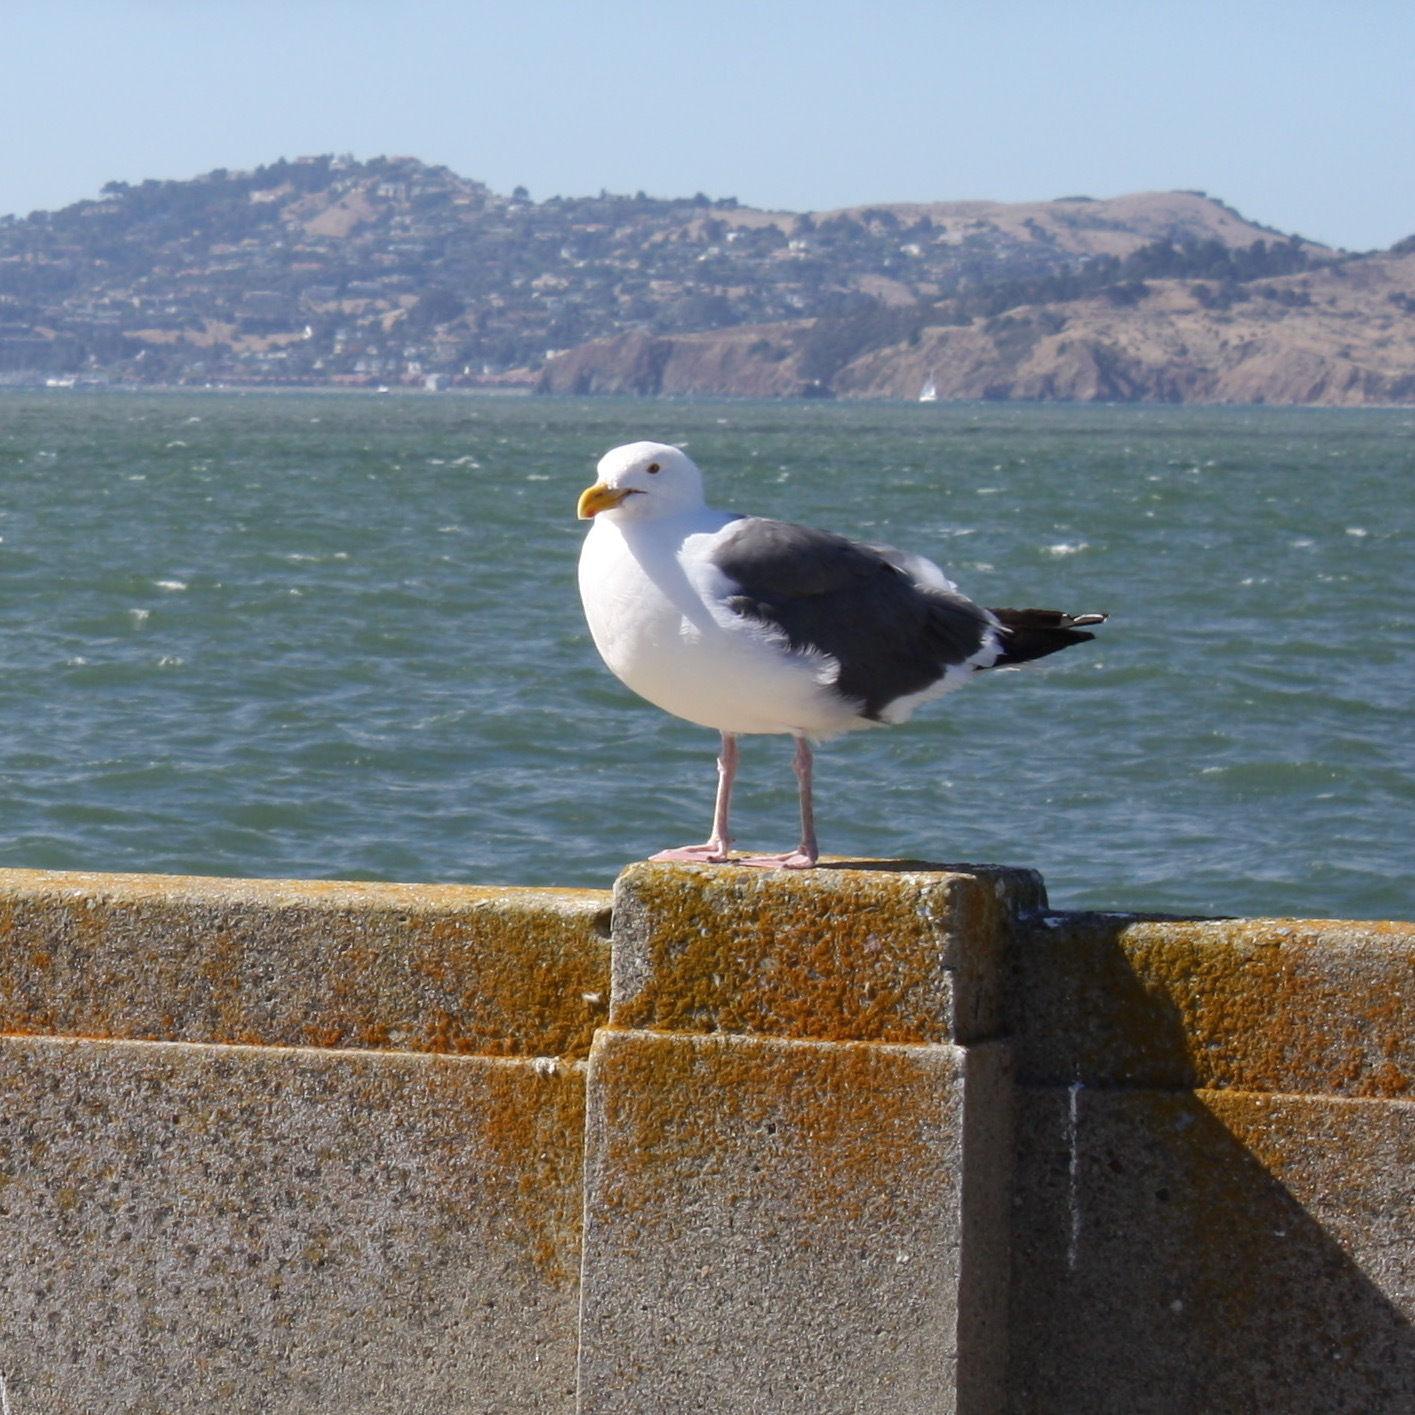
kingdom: Animalia
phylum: Chordata
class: Aves
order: Charadriiformes
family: Laridae
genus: Larus
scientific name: Larus occidentalis
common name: Western gull
